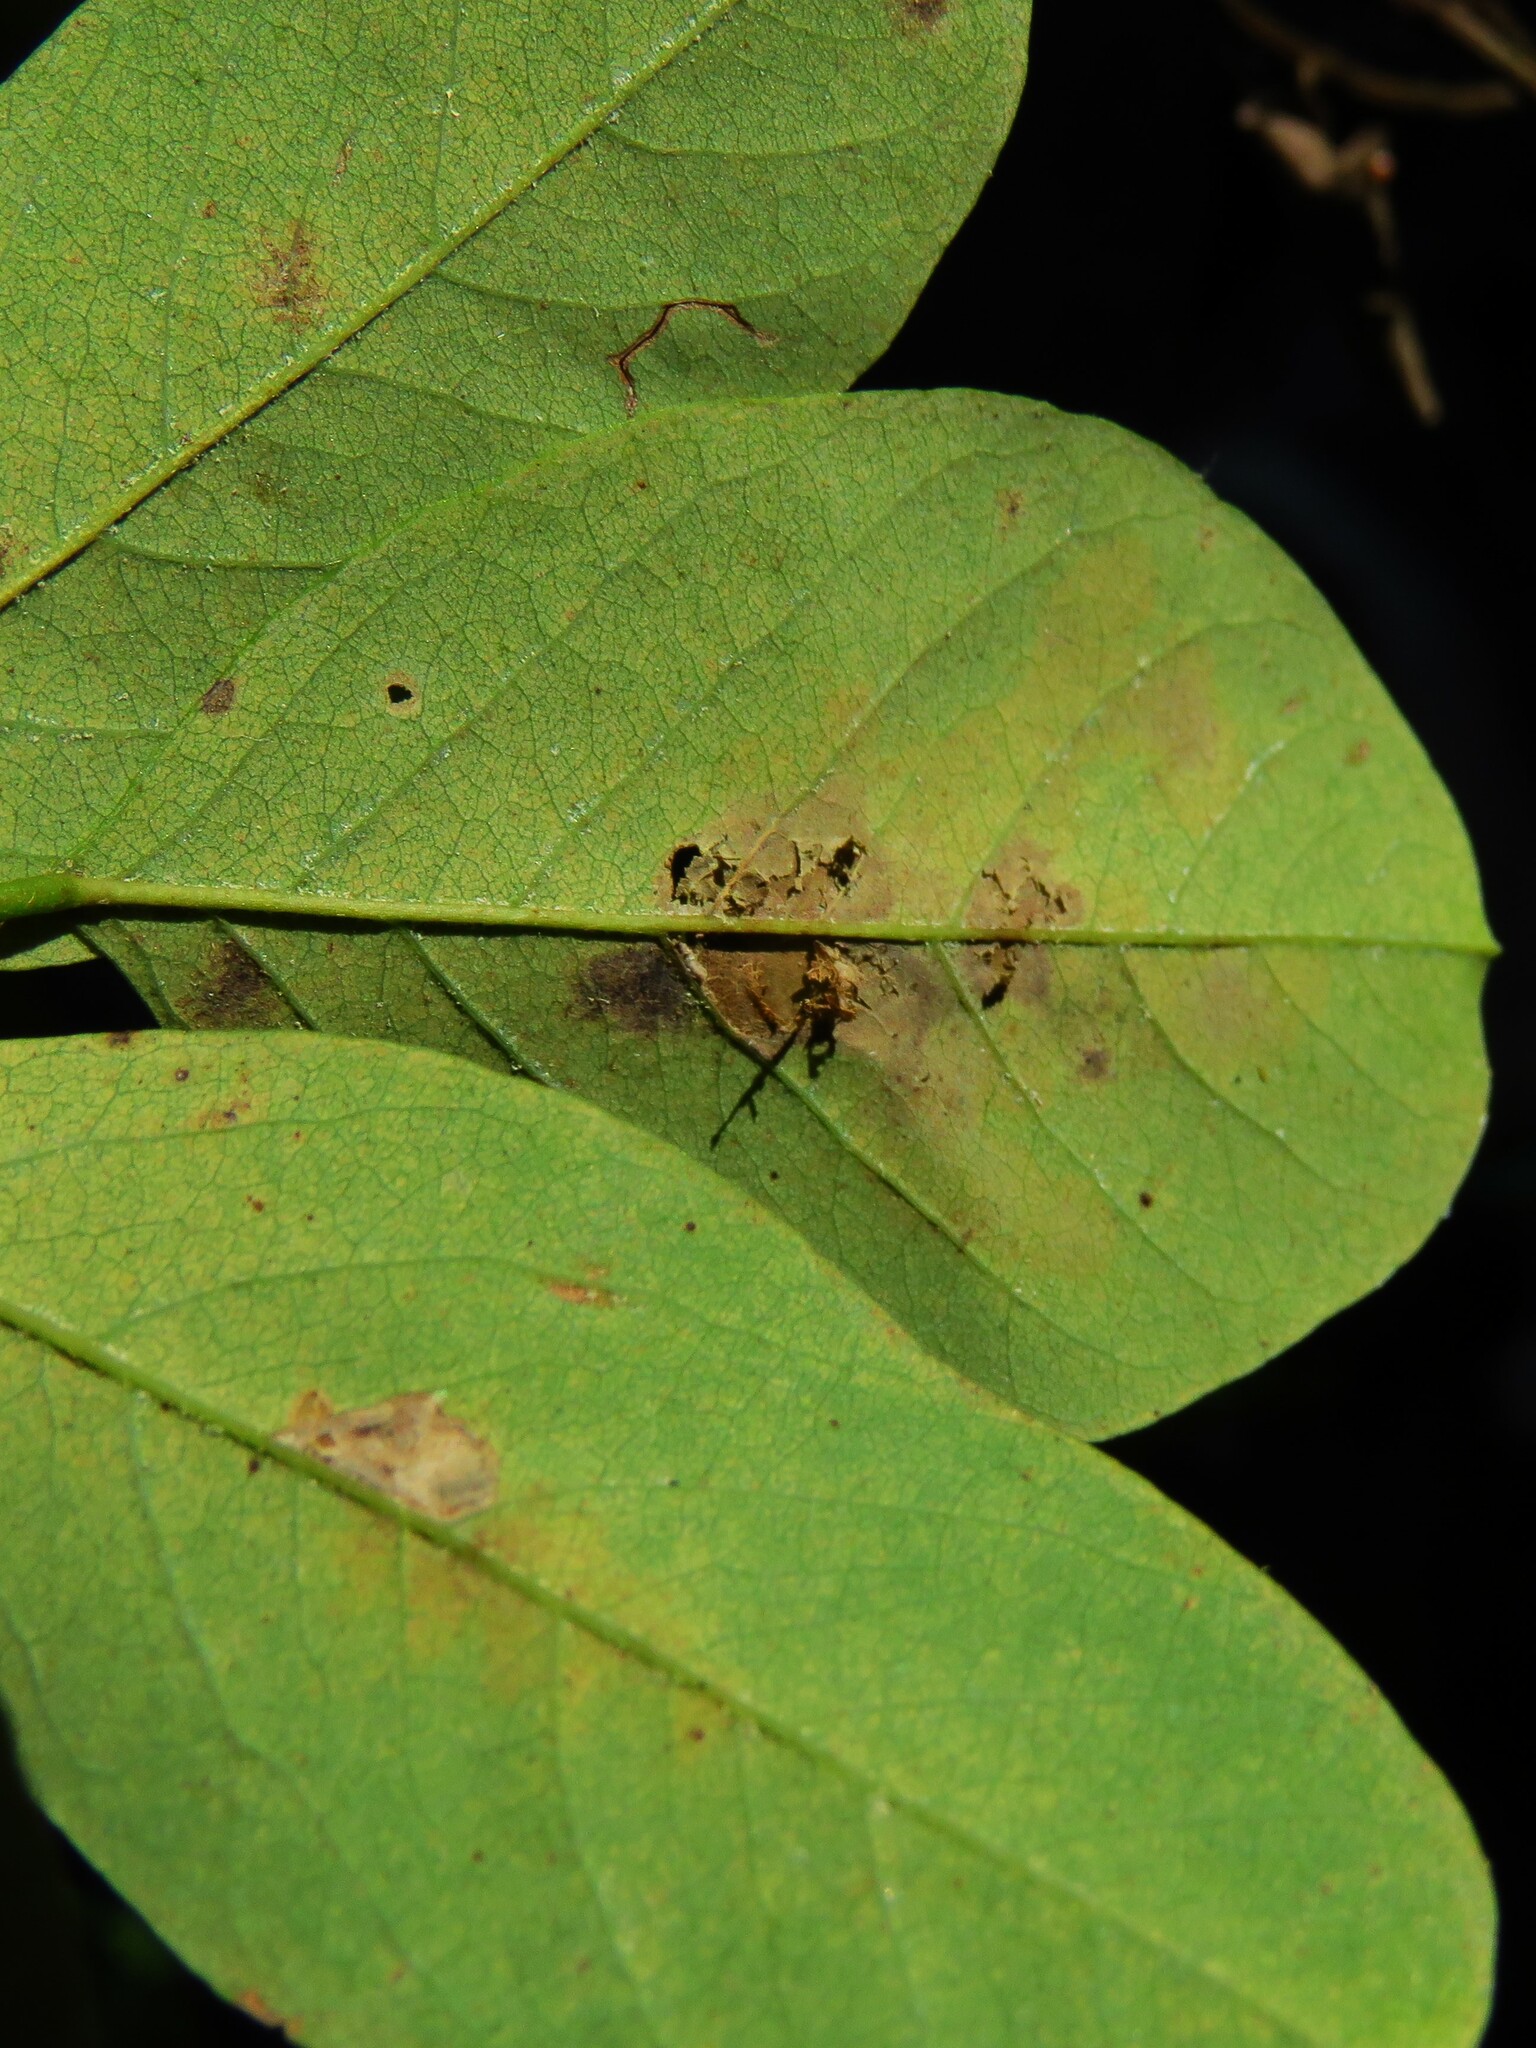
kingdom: Animalia
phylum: Arthropoda
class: Insecta
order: Lepidoptera
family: Gracillariidae
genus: Parectopa
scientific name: Parectopa robiniella
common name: Locust digitate leafminer
